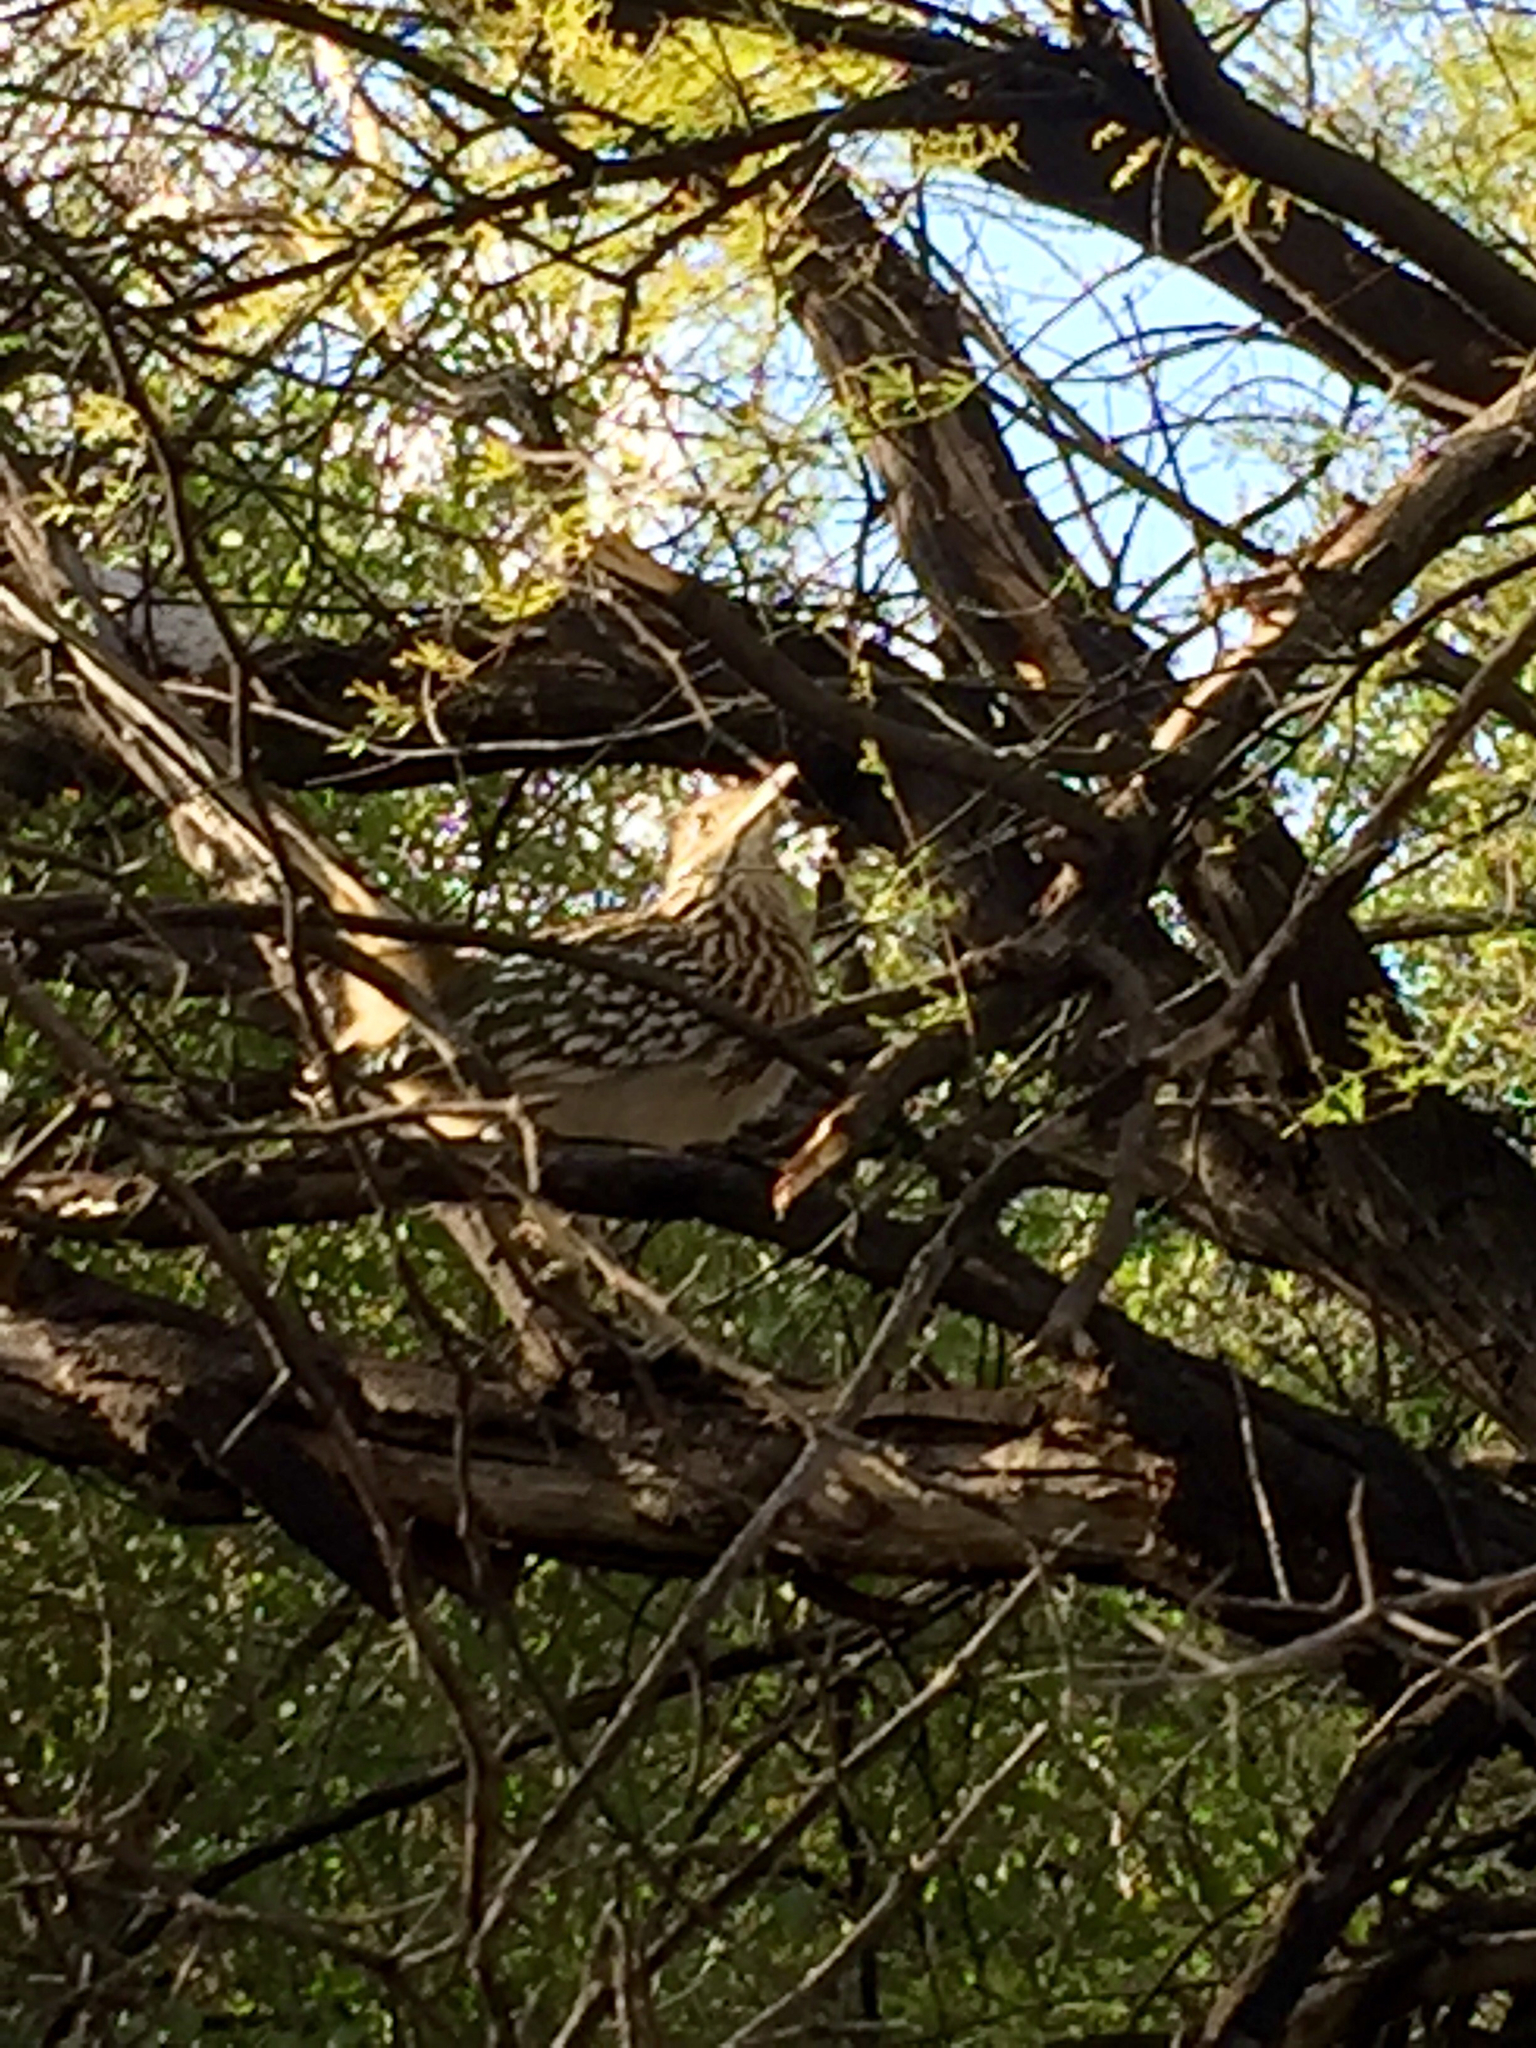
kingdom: Animalia
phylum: Chordata
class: Aves
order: Cuculiformes
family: Cuculidae
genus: Geococcyx
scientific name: Geococcyx californianus
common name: Greater roadrunner
